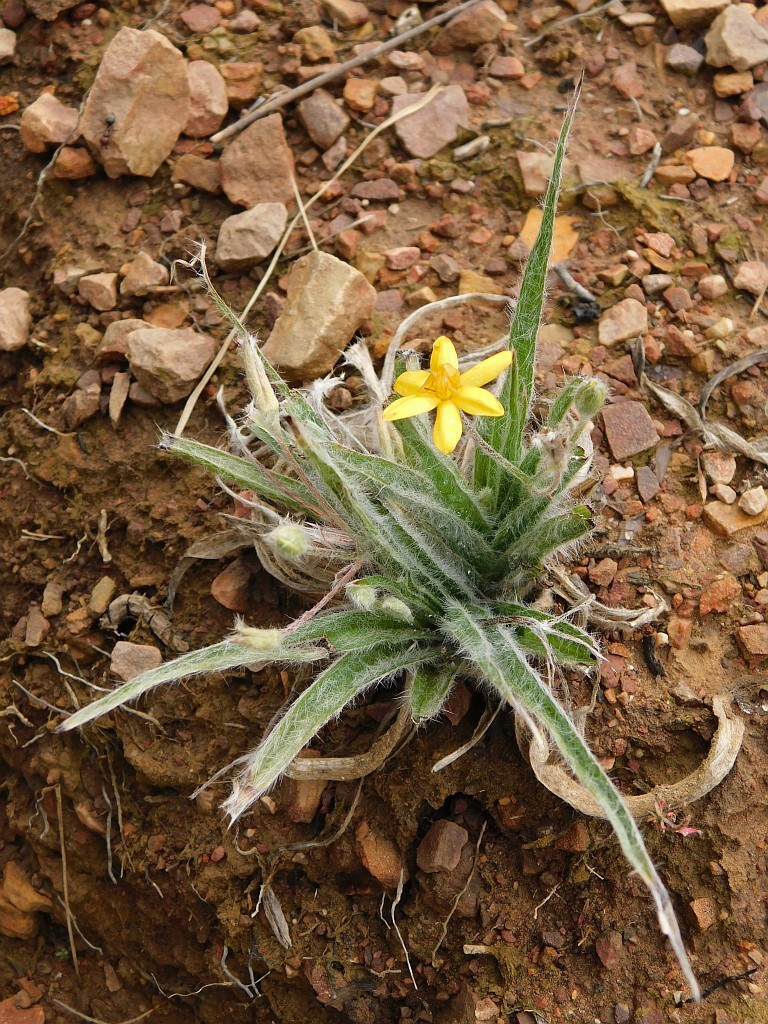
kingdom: Plantae
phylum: Tracheophyta
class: Liliopsida
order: Asparagales
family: Hypoxidaceae
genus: Hypoxis
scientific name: Hypoxis floccosa
